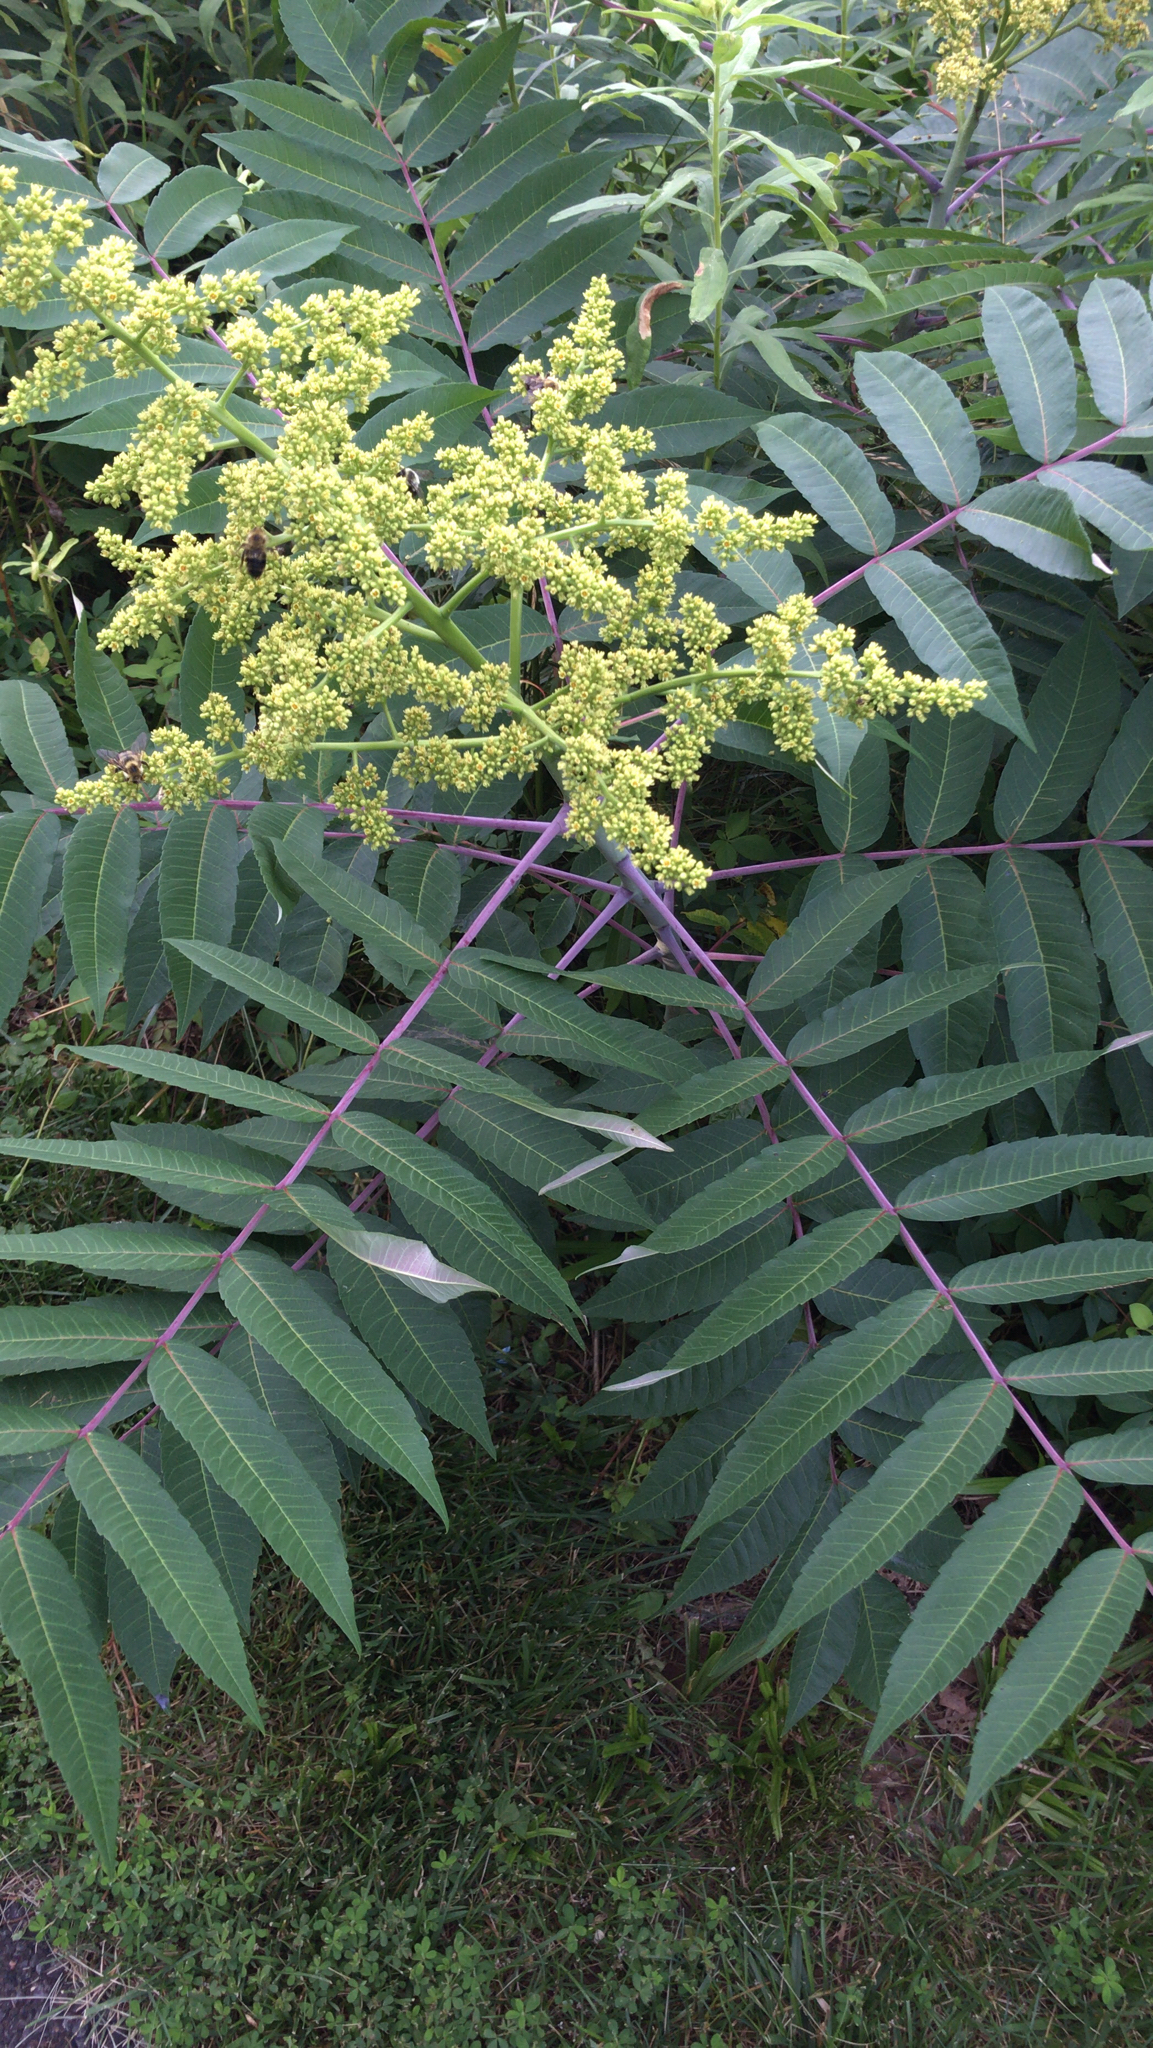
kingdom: Plantae
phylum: Tracheophyta
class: Magnoliopsida
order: Sapindales
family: Anacardiaceae
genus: Rhus
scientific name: Rhus glabra
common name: Scarlet sumac
